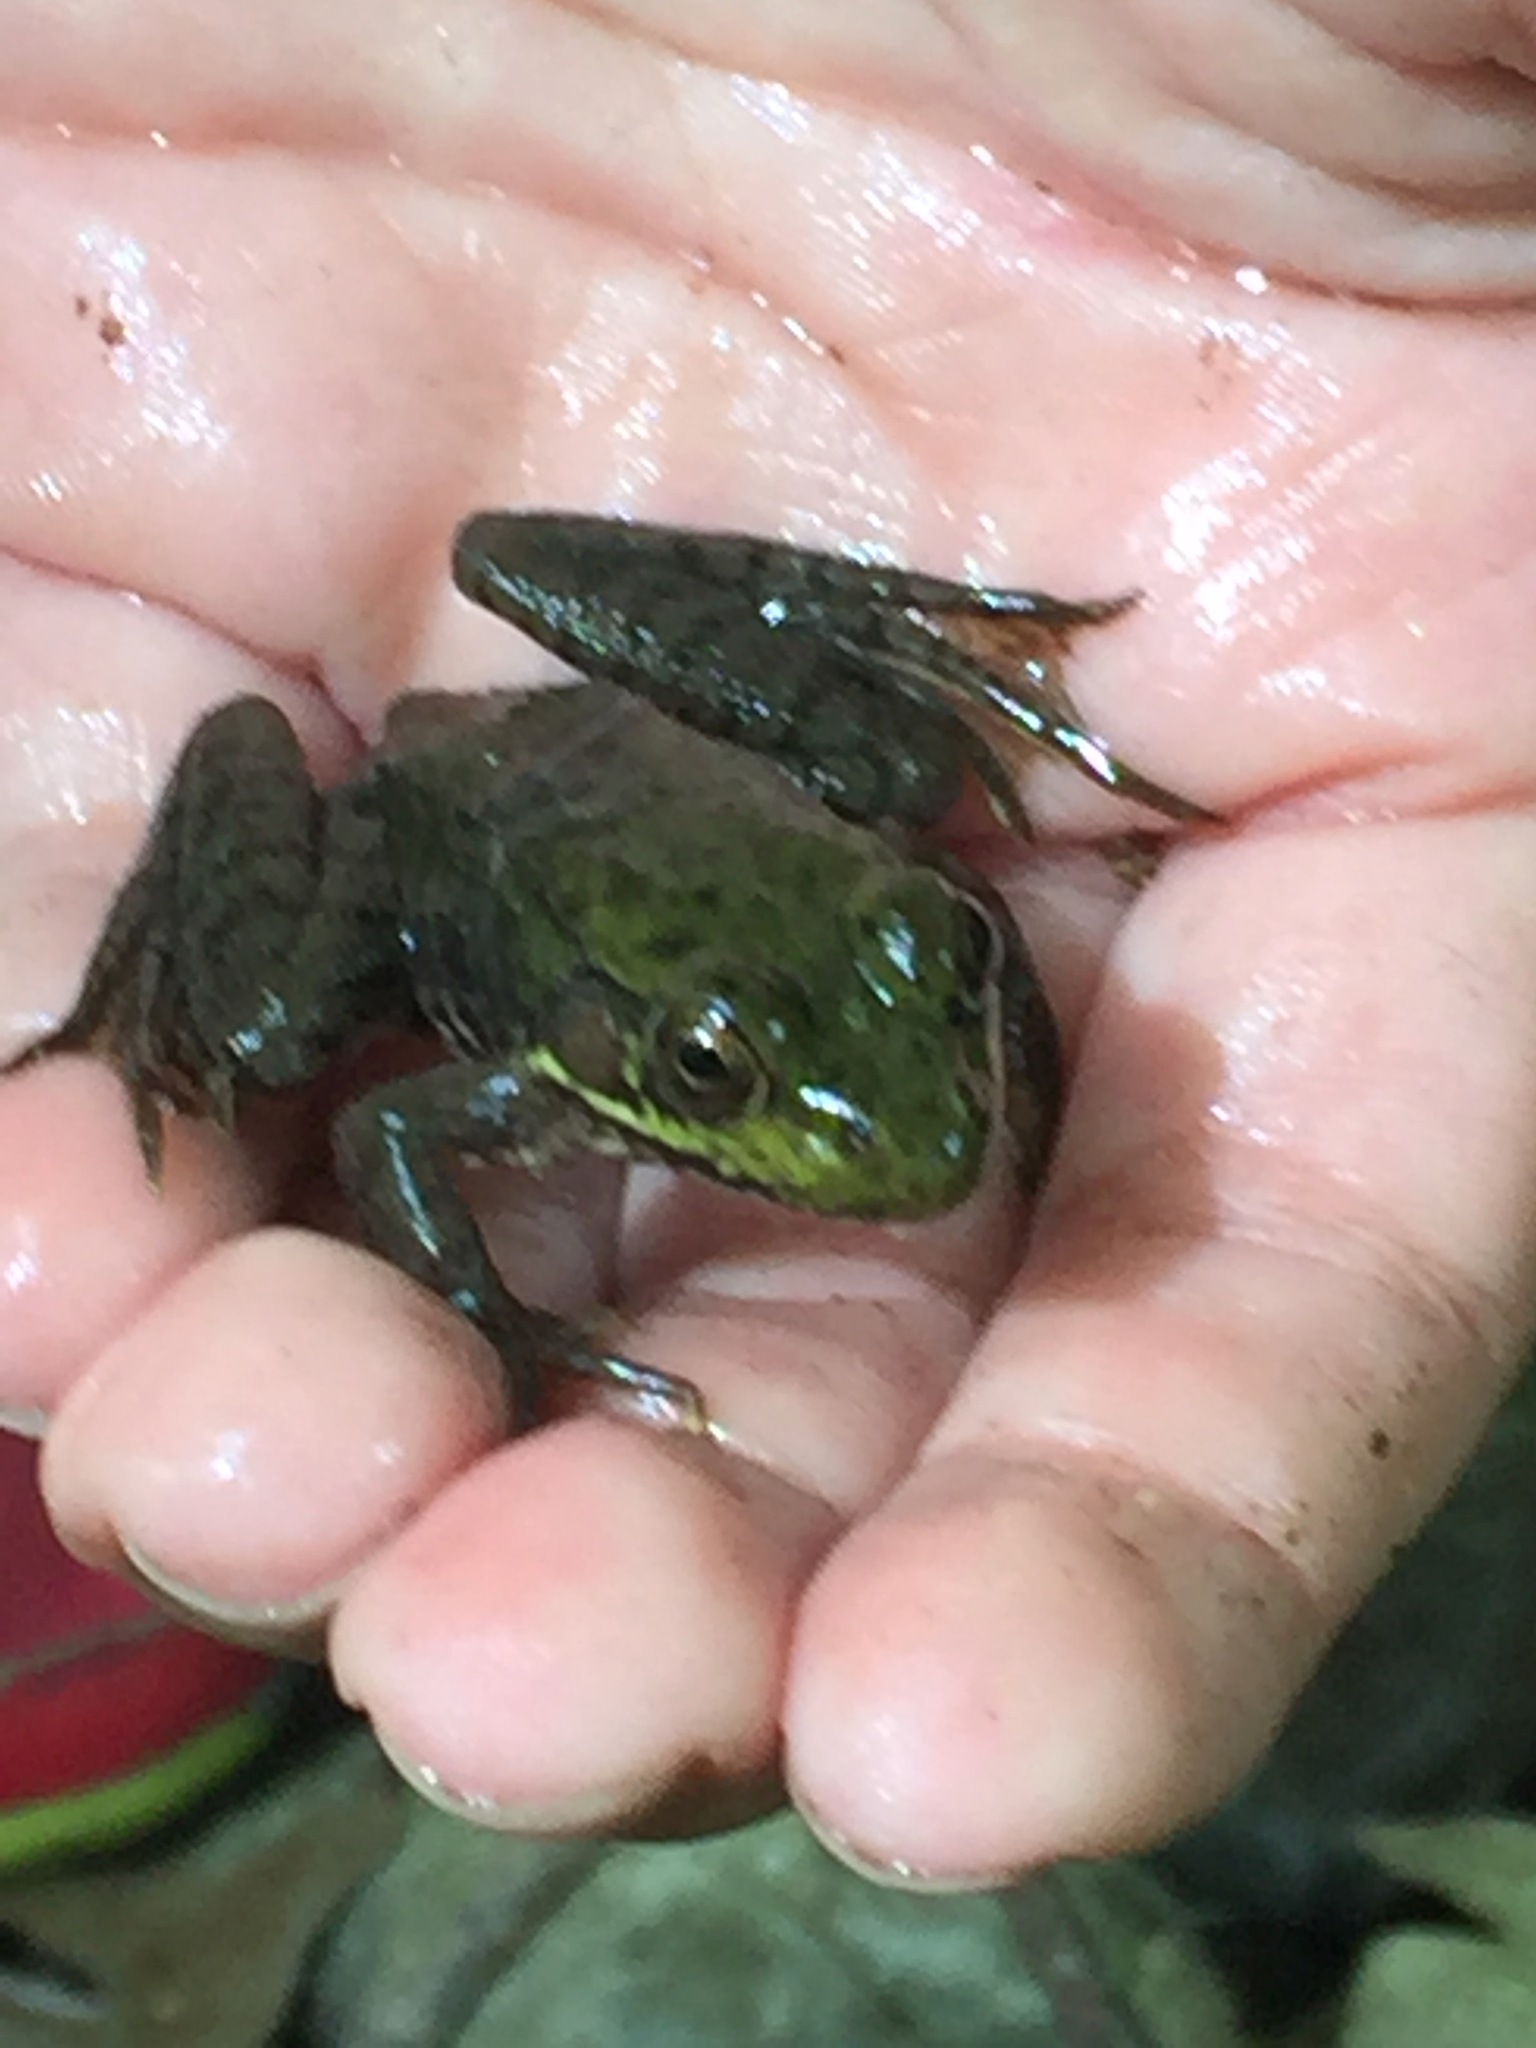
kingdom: Animalia
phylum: Chordata
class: Amphibia
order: Anura
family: Ranidae
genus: Lithobates
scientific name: Lithobates clamitans
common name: Green frog
